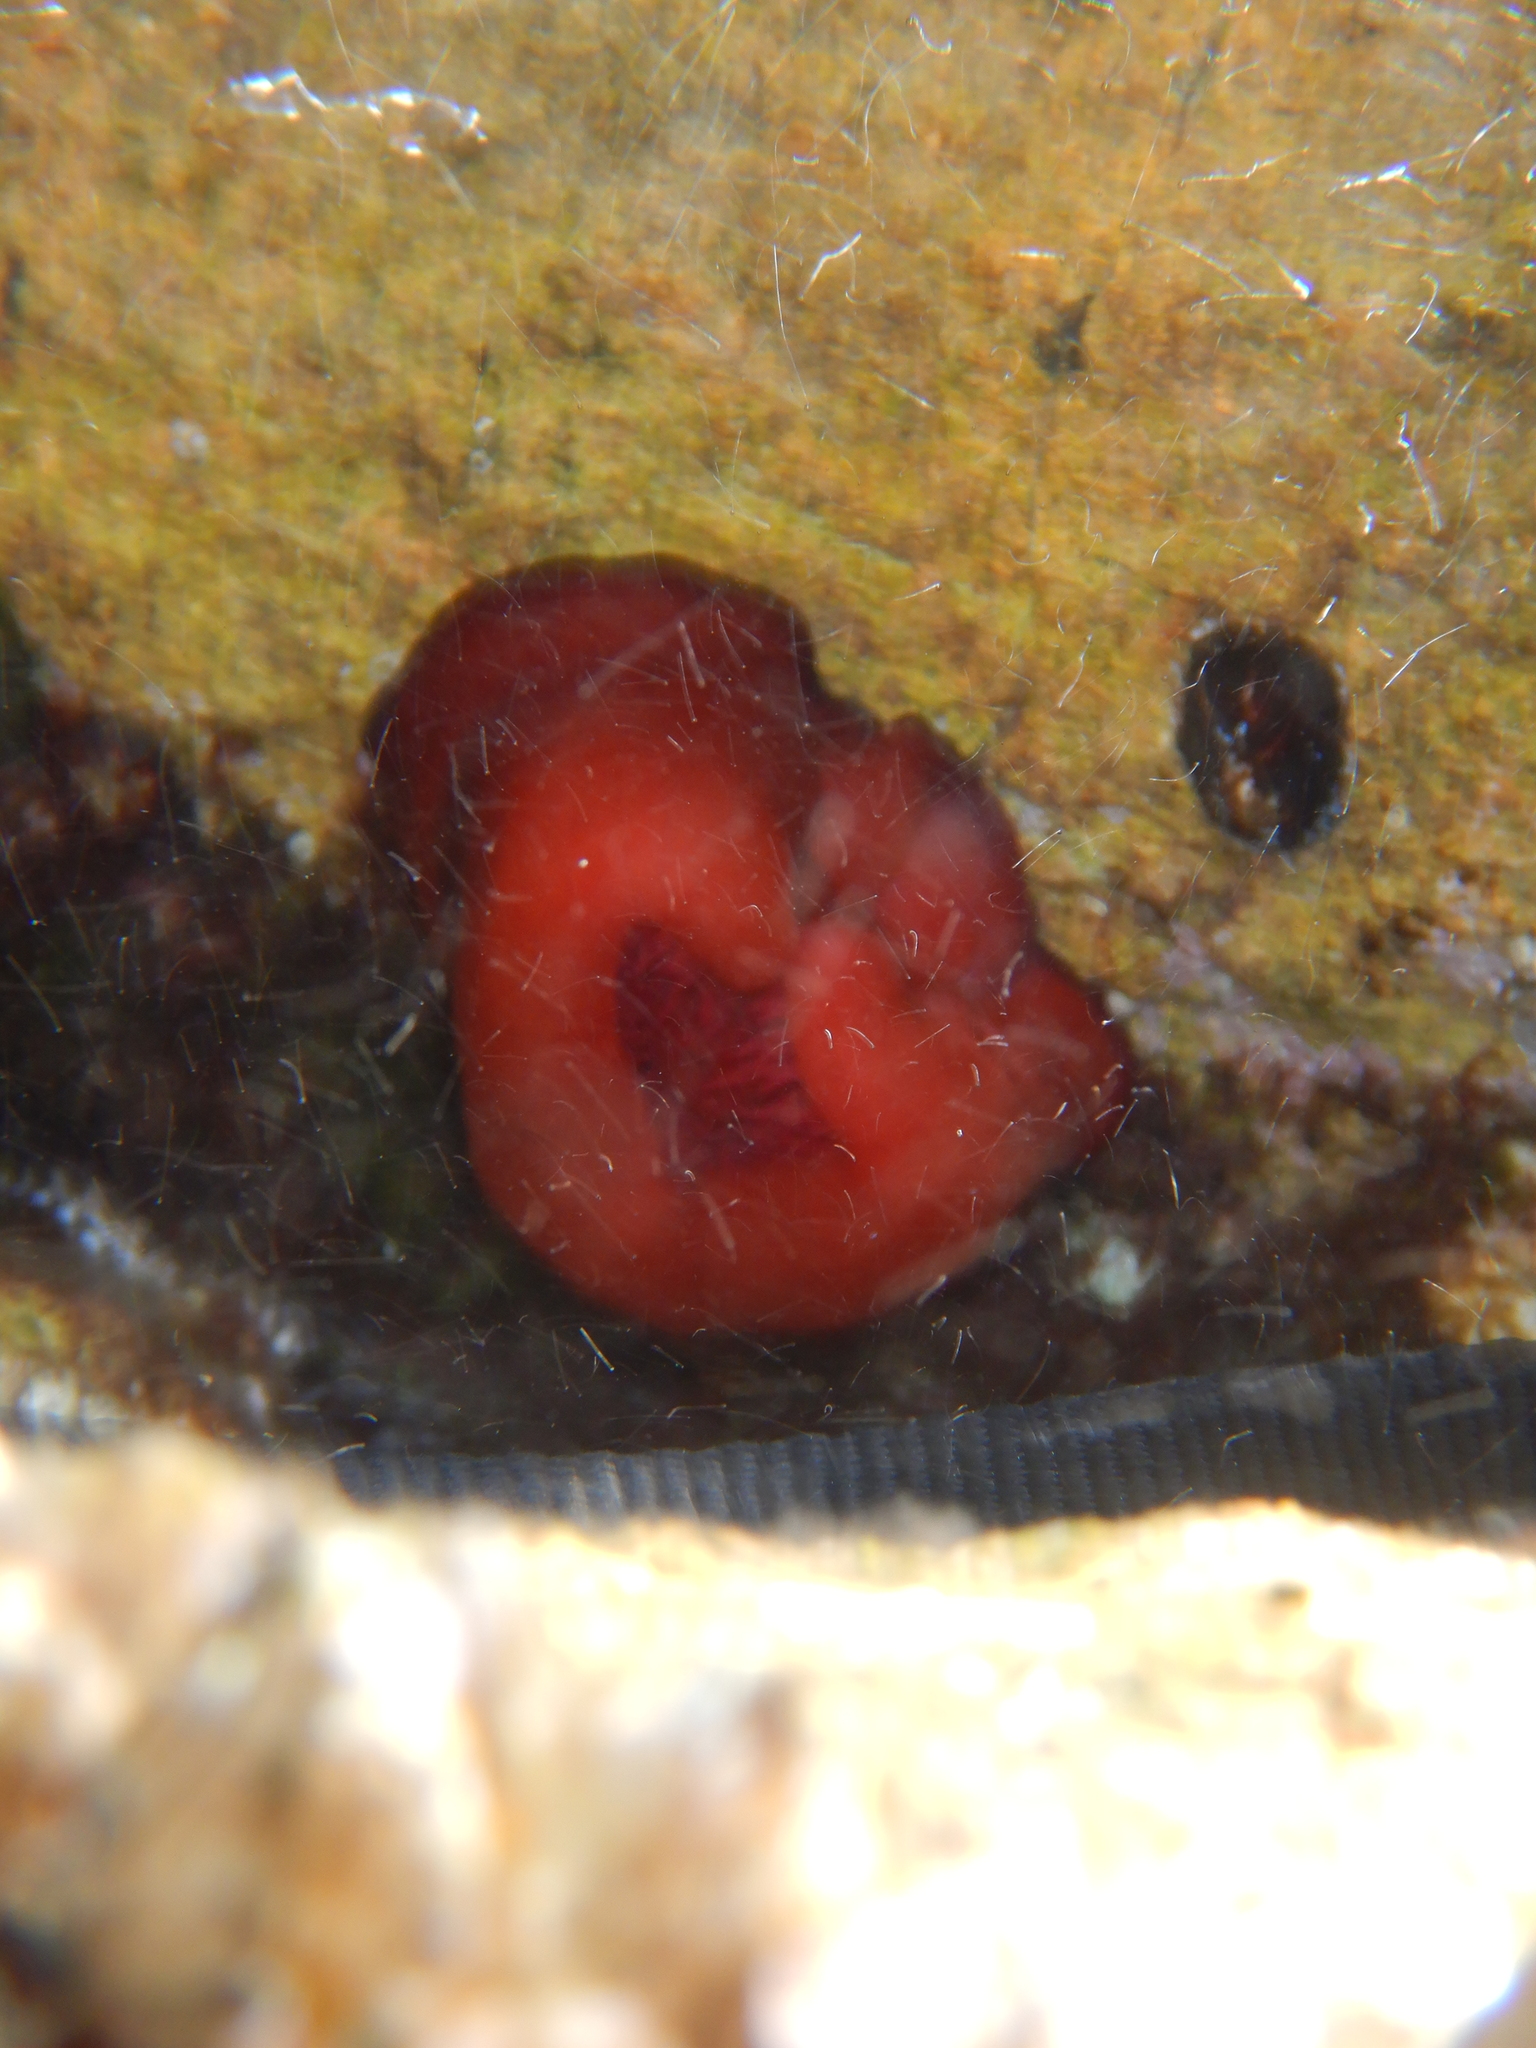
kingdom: Animalia
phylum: Cnidaria
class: Anthozoa
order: Actiniaria
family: Actiniidae
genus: Actinia
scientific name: Actinia mediterranea
